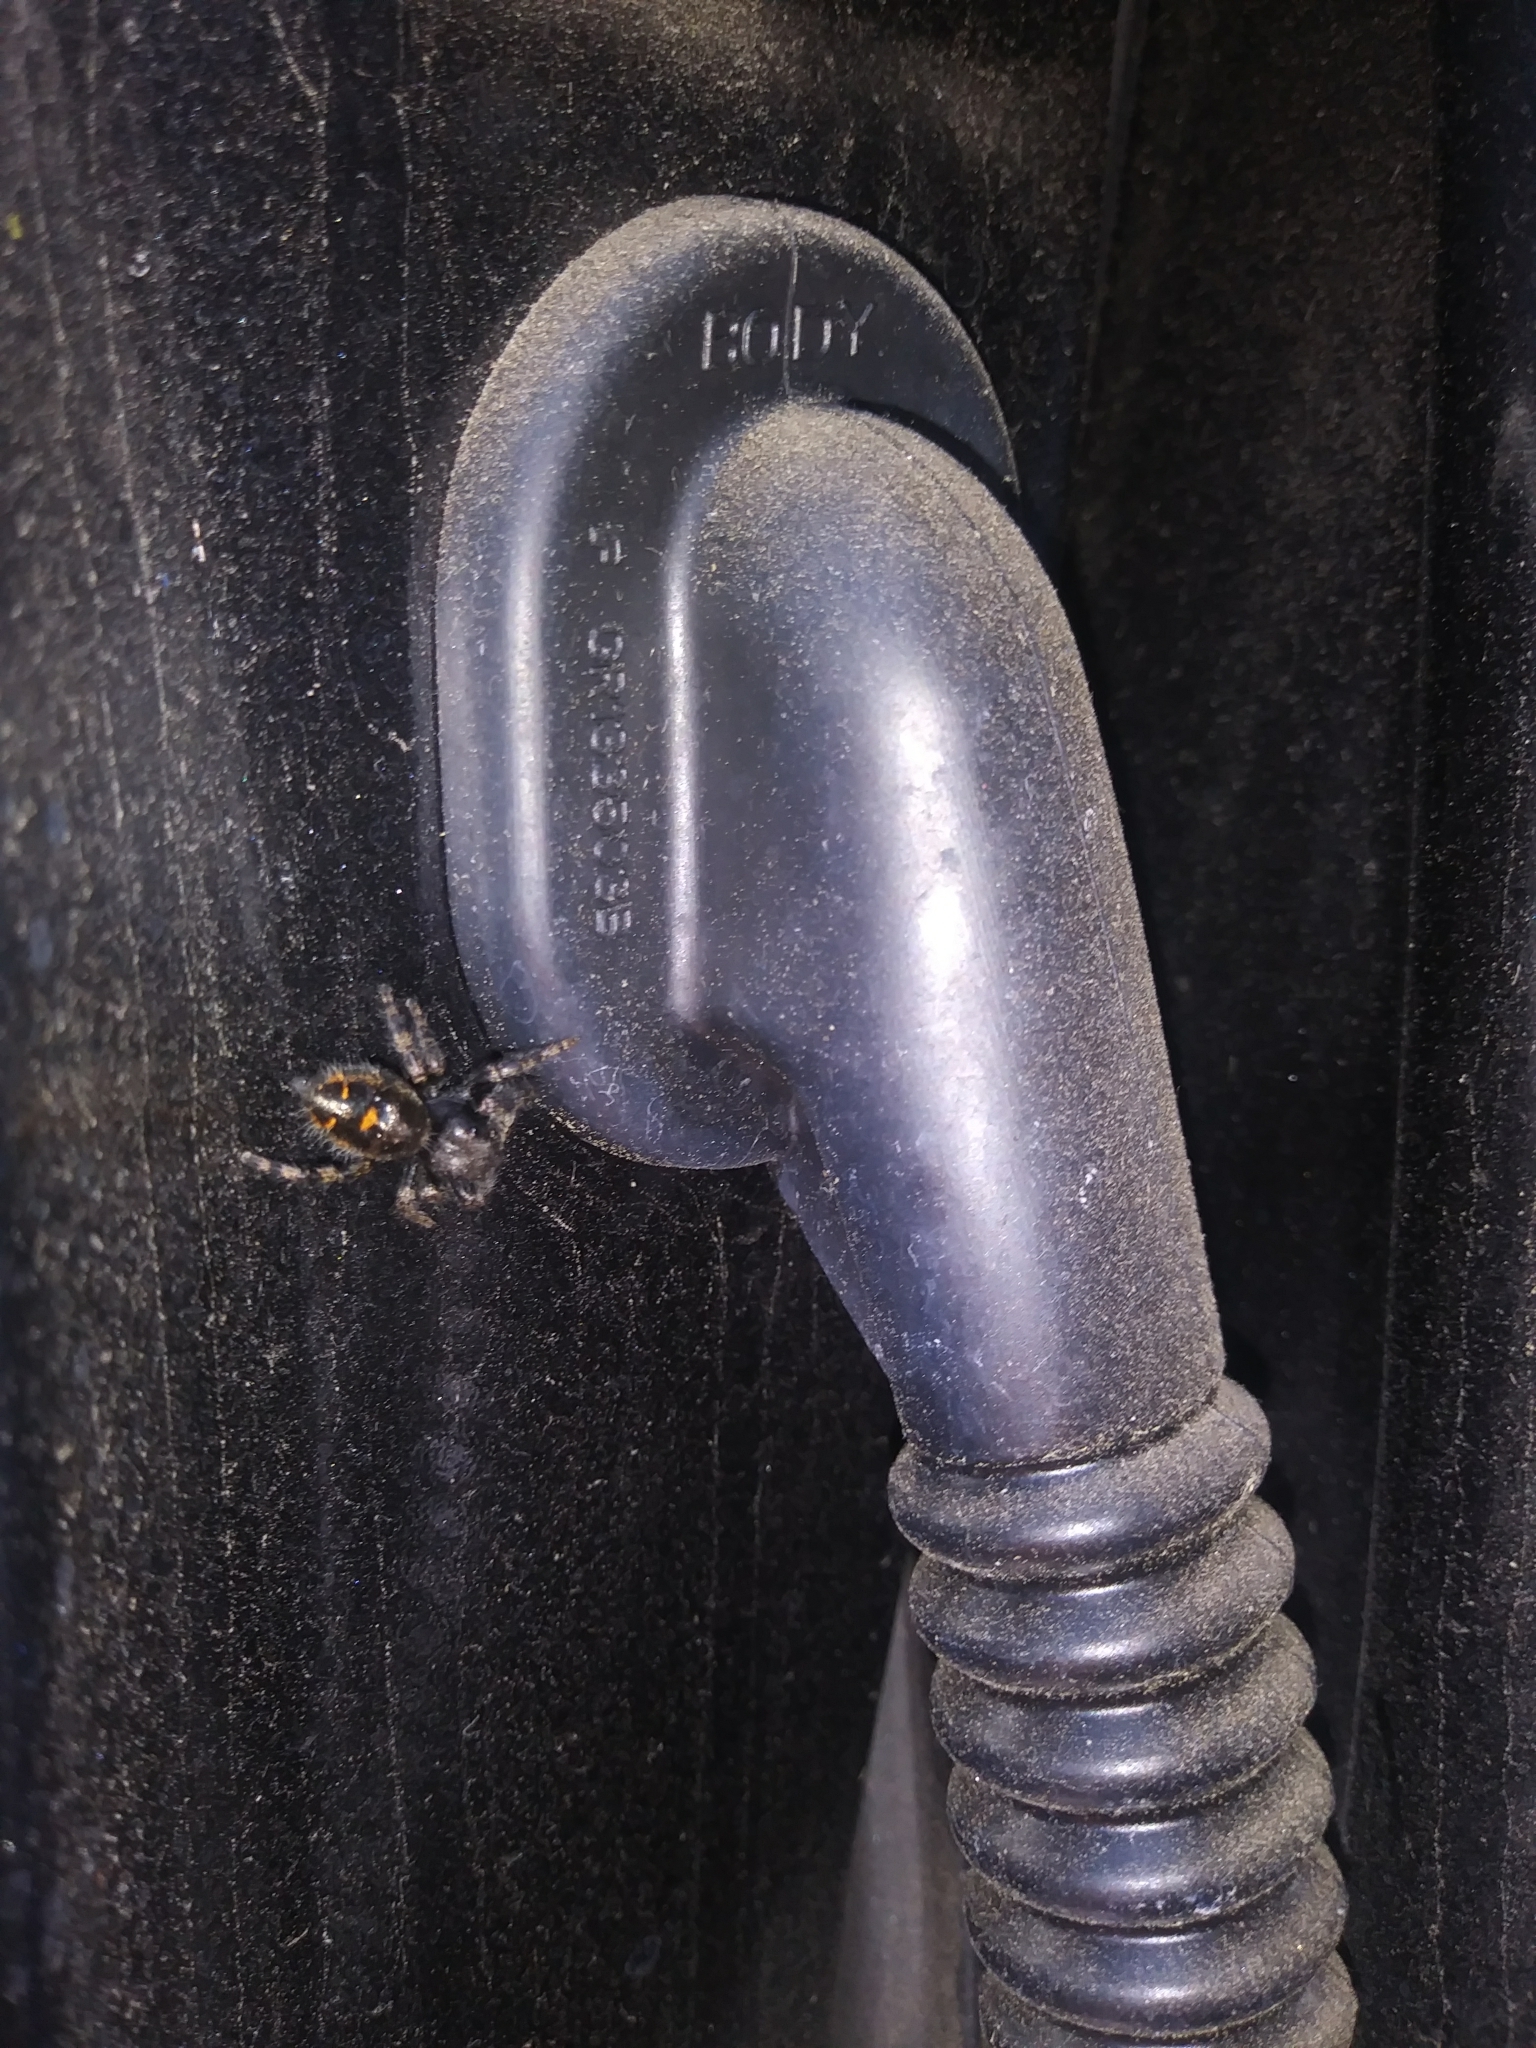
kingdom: Animalia
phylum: Arthropoda
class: Arachnida
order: Araneae
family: Salticidae
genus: Phidippus
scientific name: Phidippus audax
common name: Bold jumper
